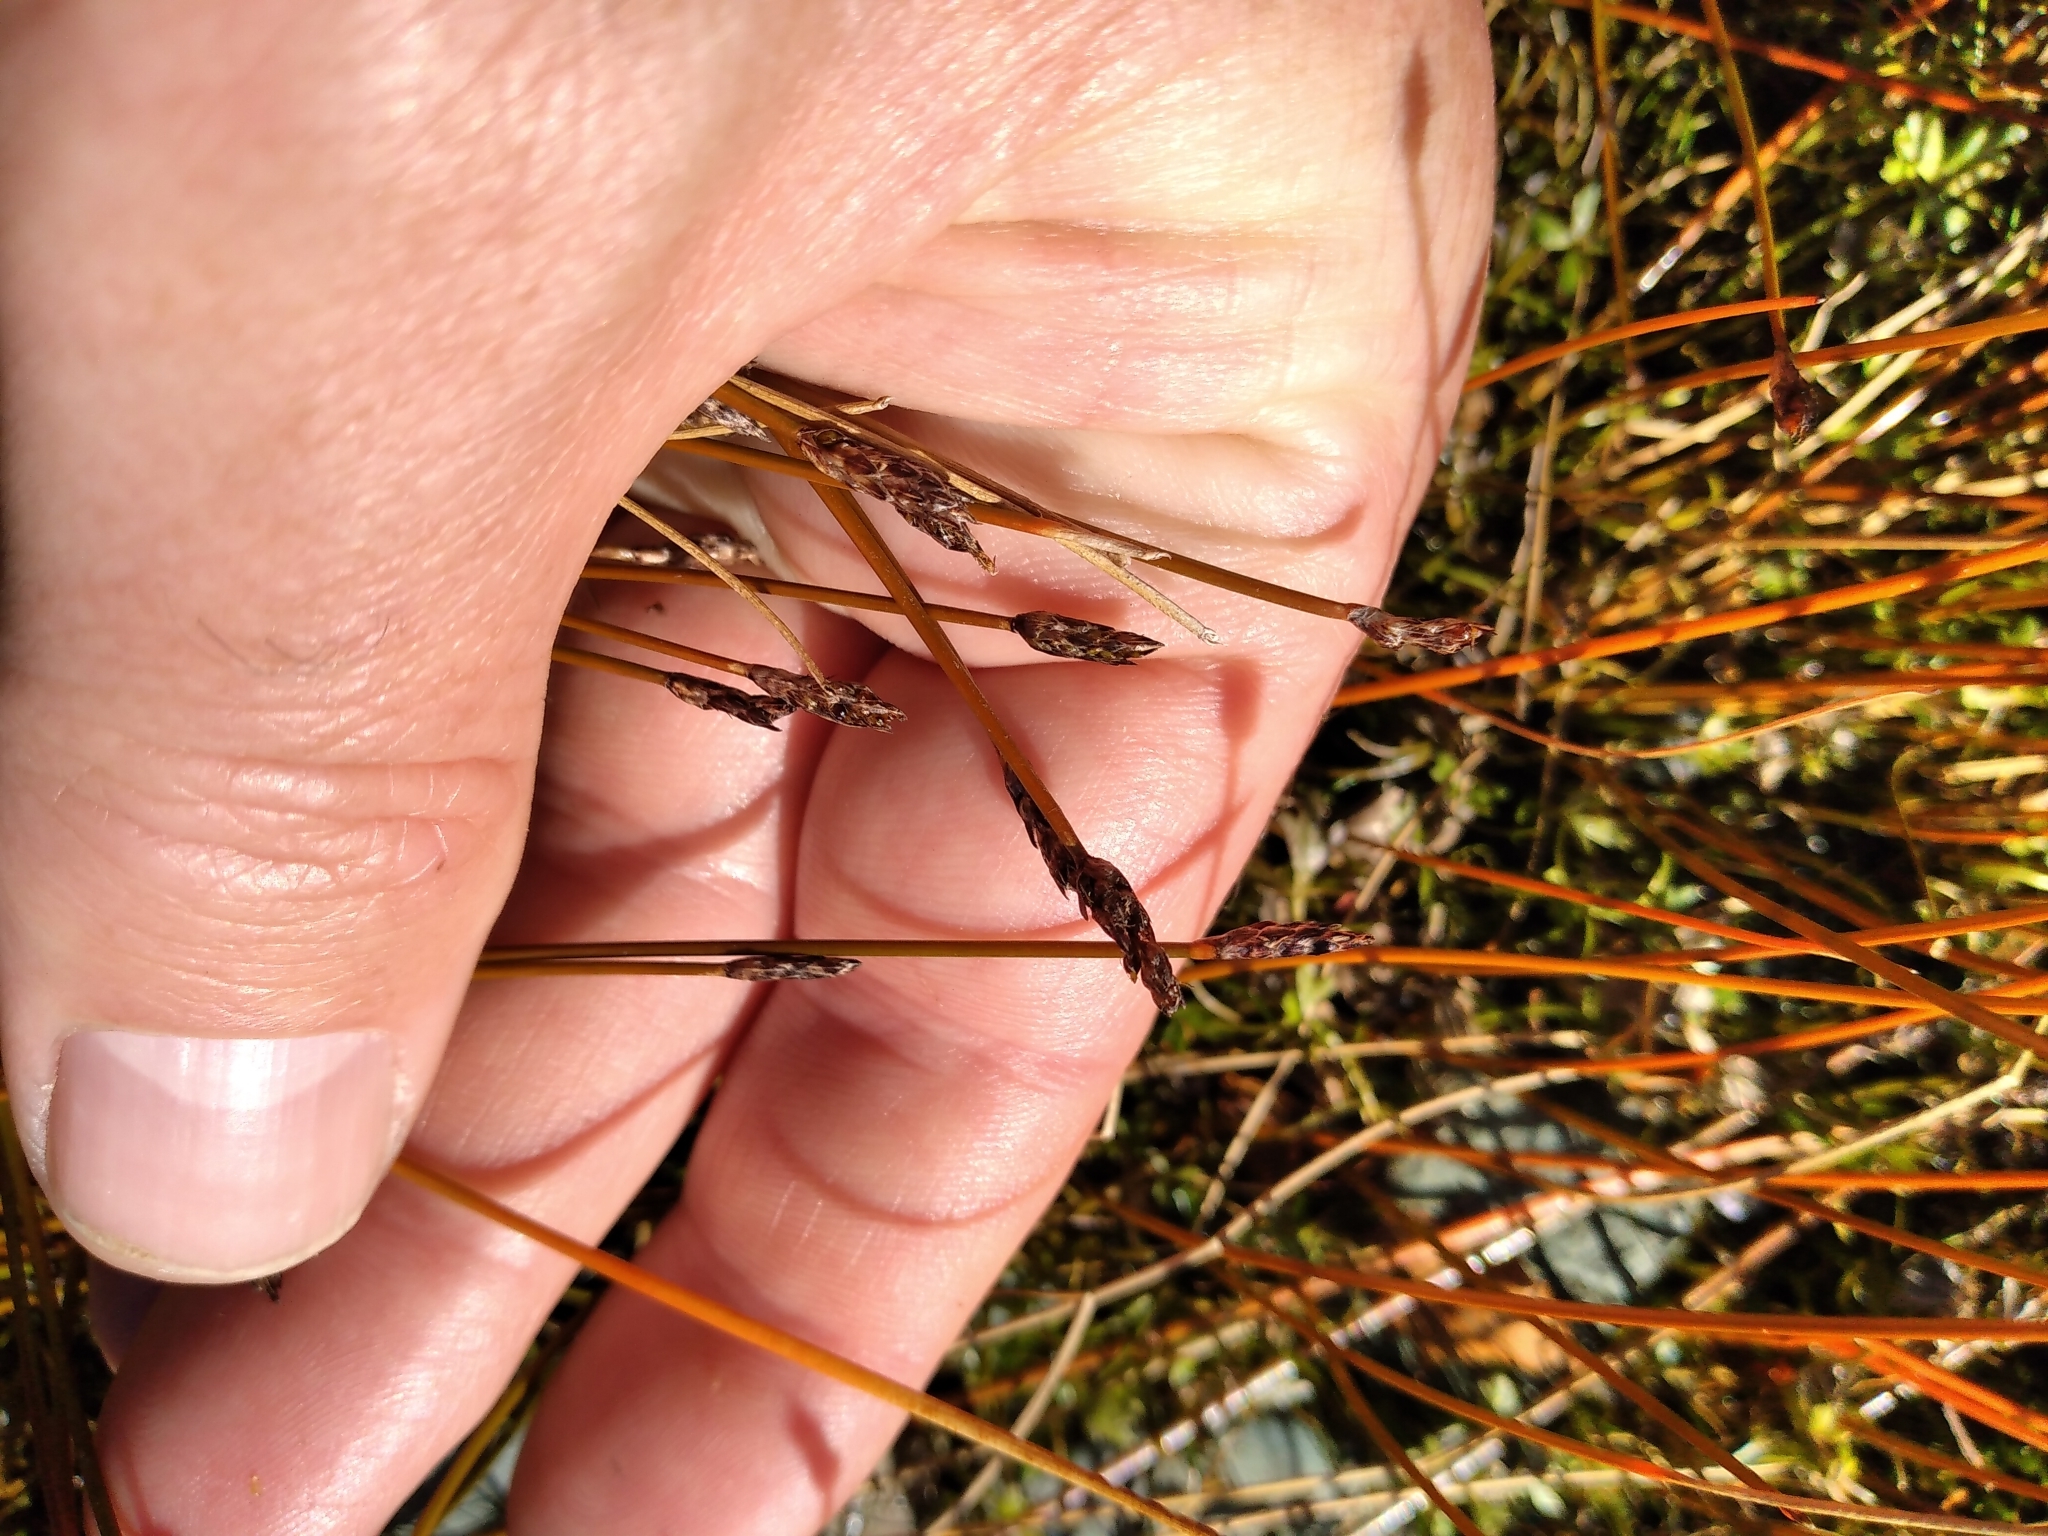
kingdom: Plantae
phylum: Tracheophyta
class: Liliopsida
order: Poales
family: Cyperaceae
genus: Eleocharis
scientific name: Eleocharis acuta
